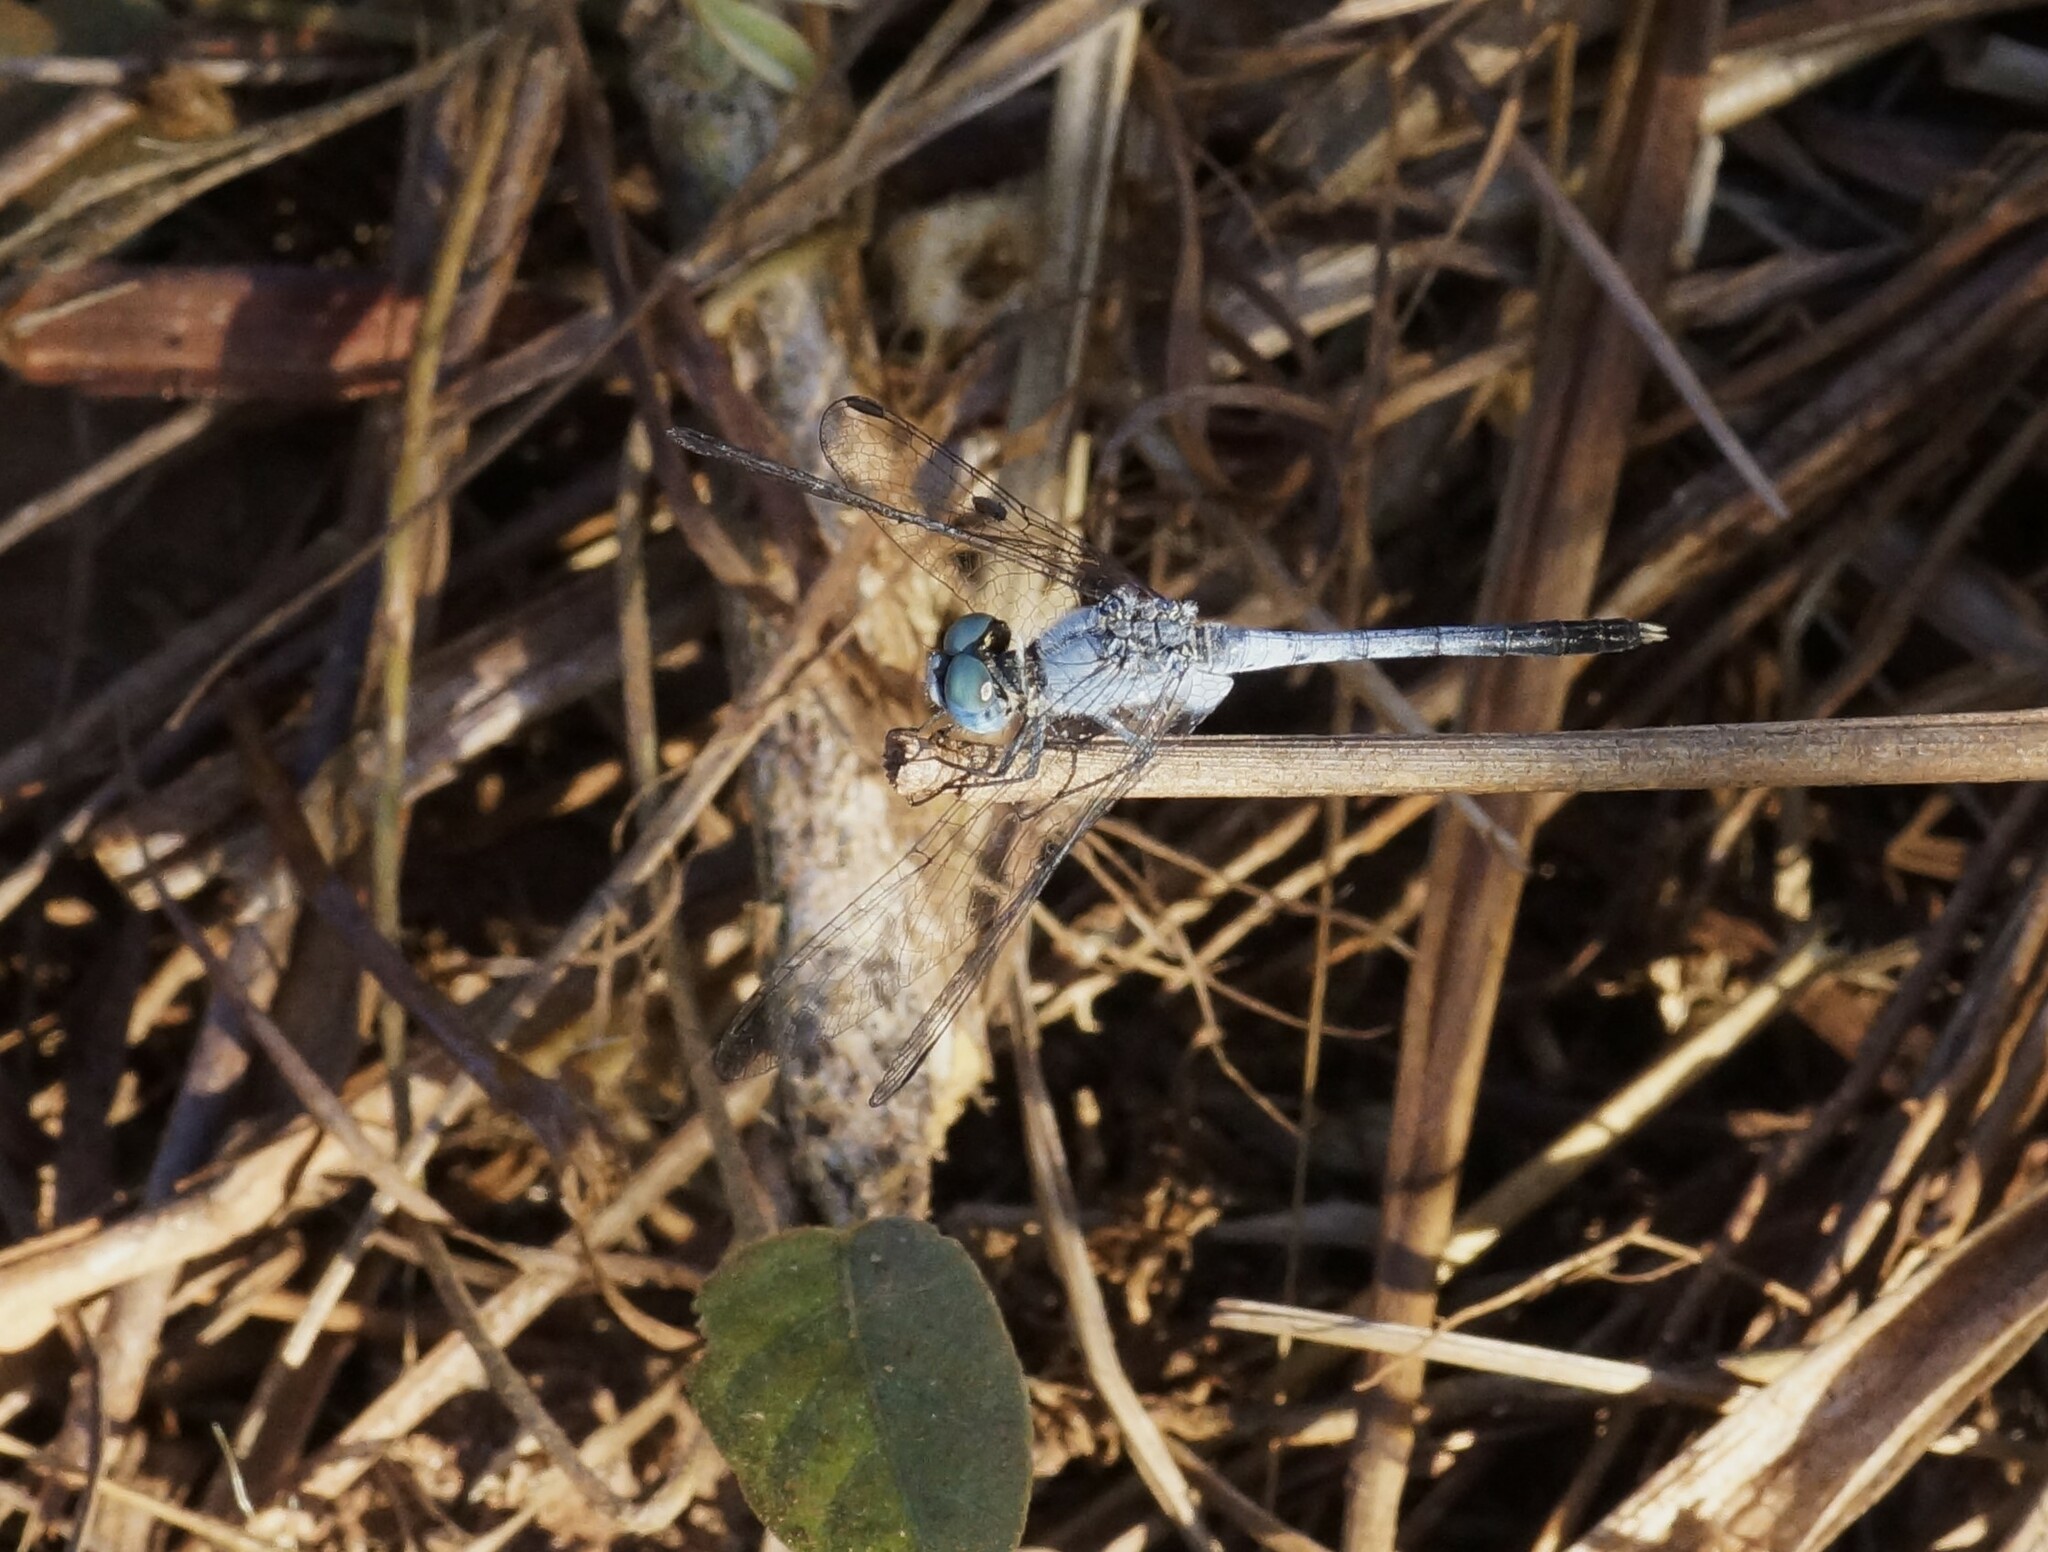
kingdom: Animalia
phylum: Arthropoda
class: Insecta
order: Odonata
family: Libellulidae
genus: Diplacodes
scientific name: Diplacodes trivialis
